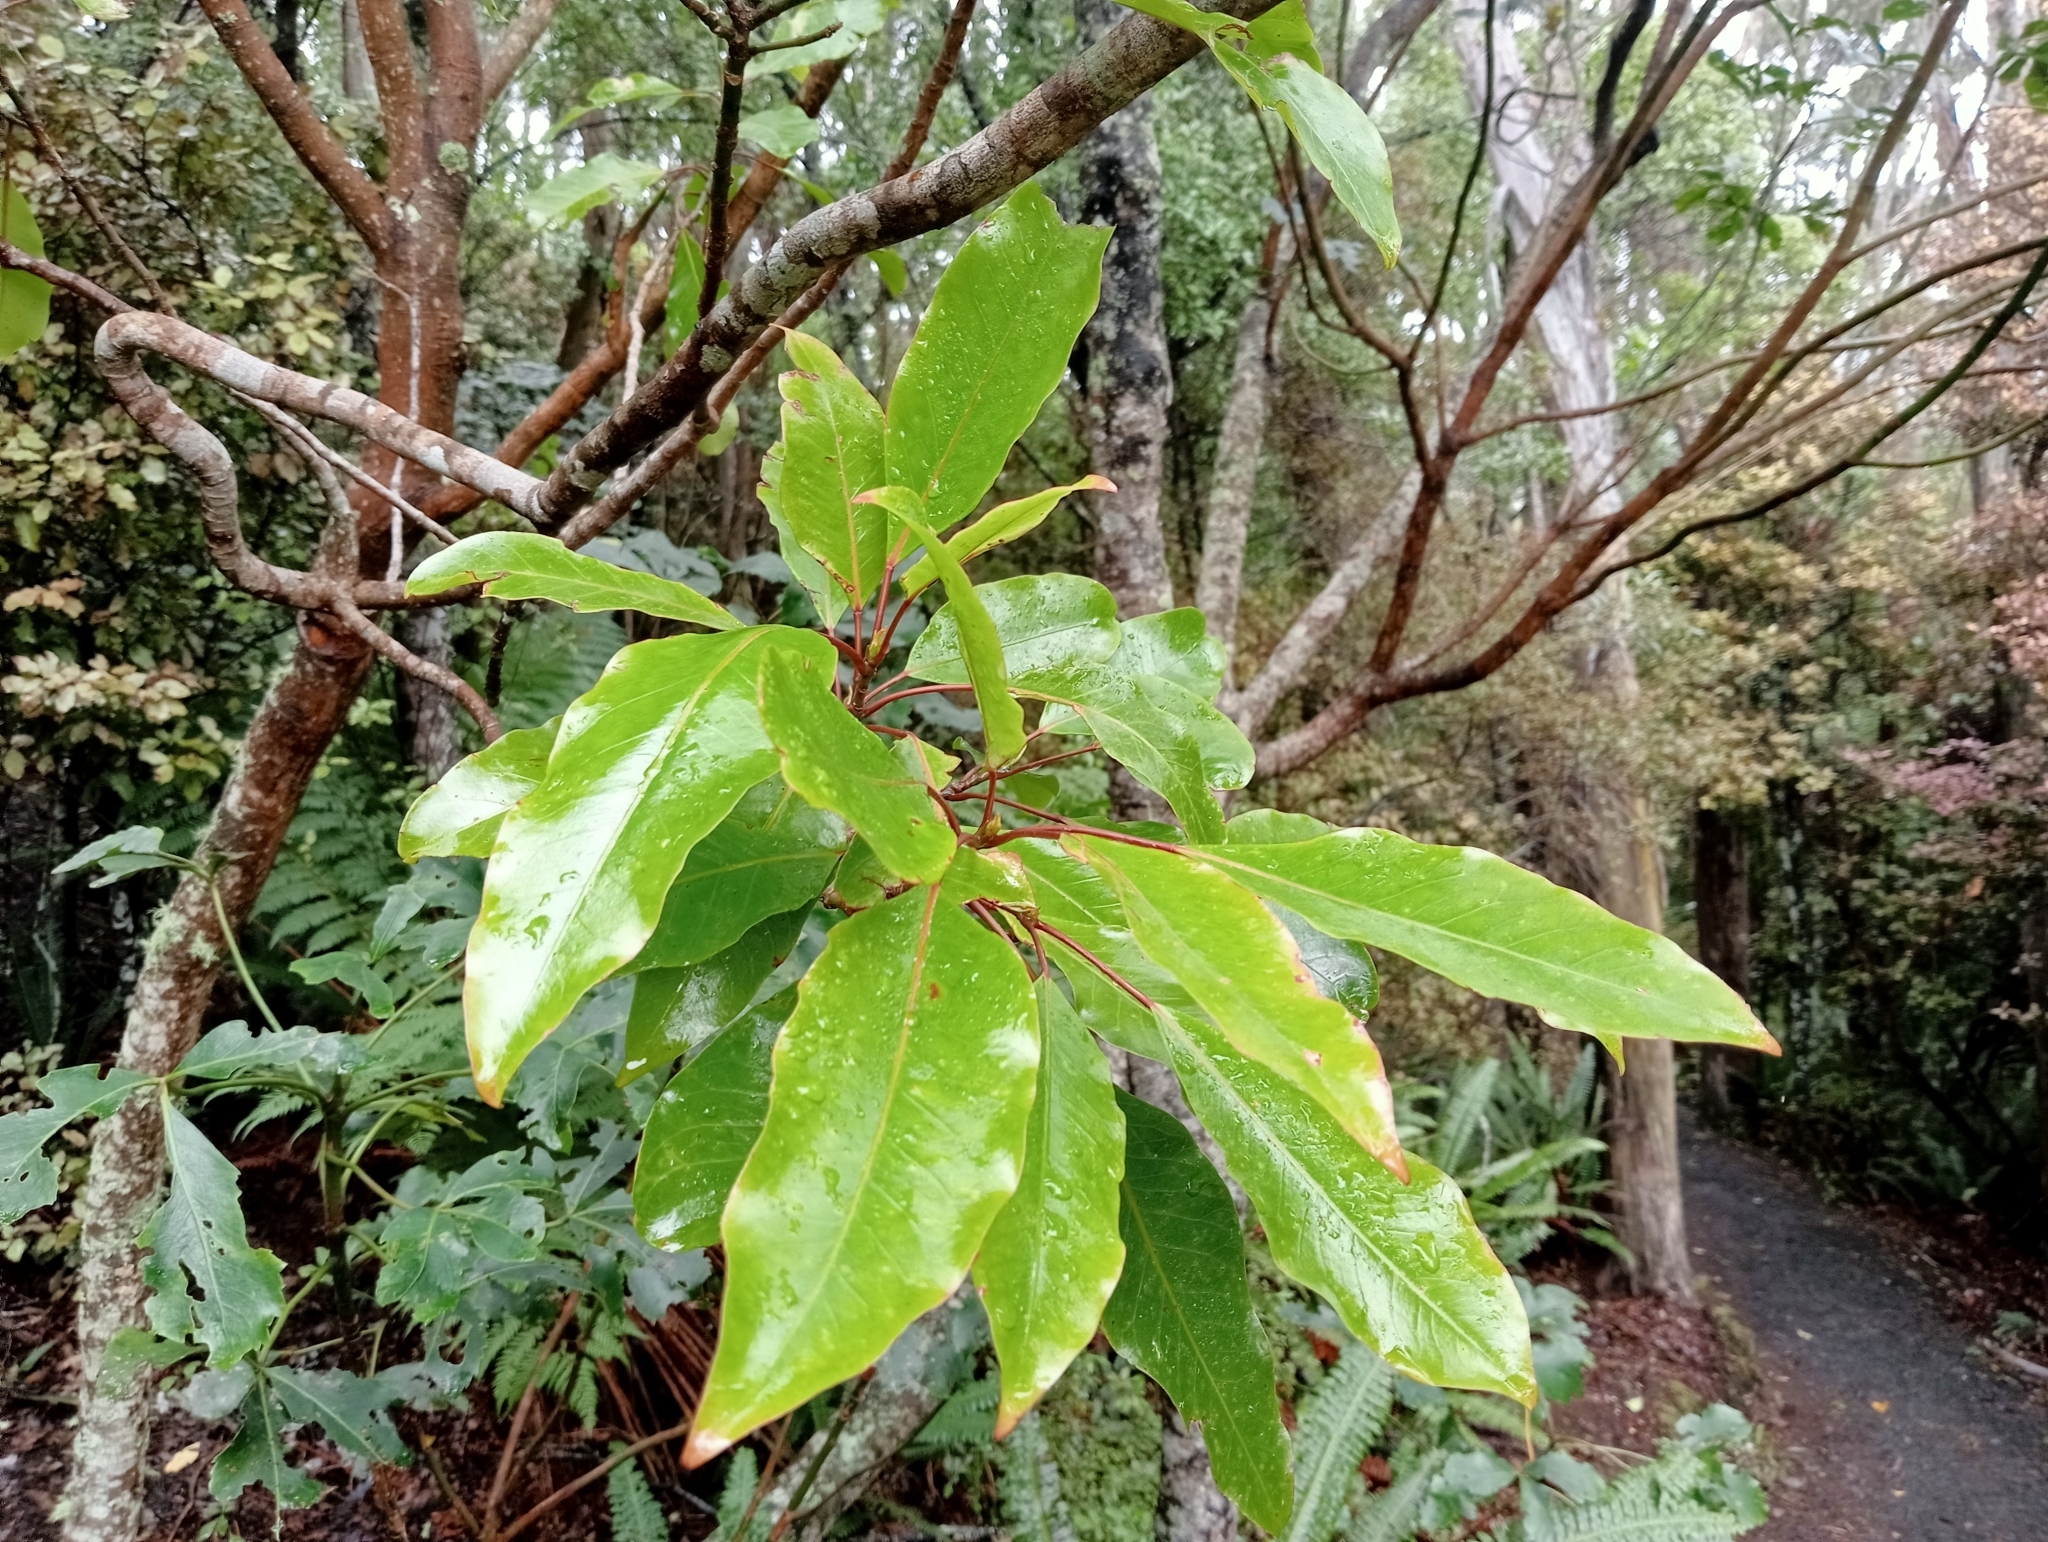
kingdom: Plantae
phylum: Tracheophyta
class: Magnoliopsida
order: Apiales
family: Araliaceae
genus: Raukaua
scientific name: Raukaua edgerleyi
